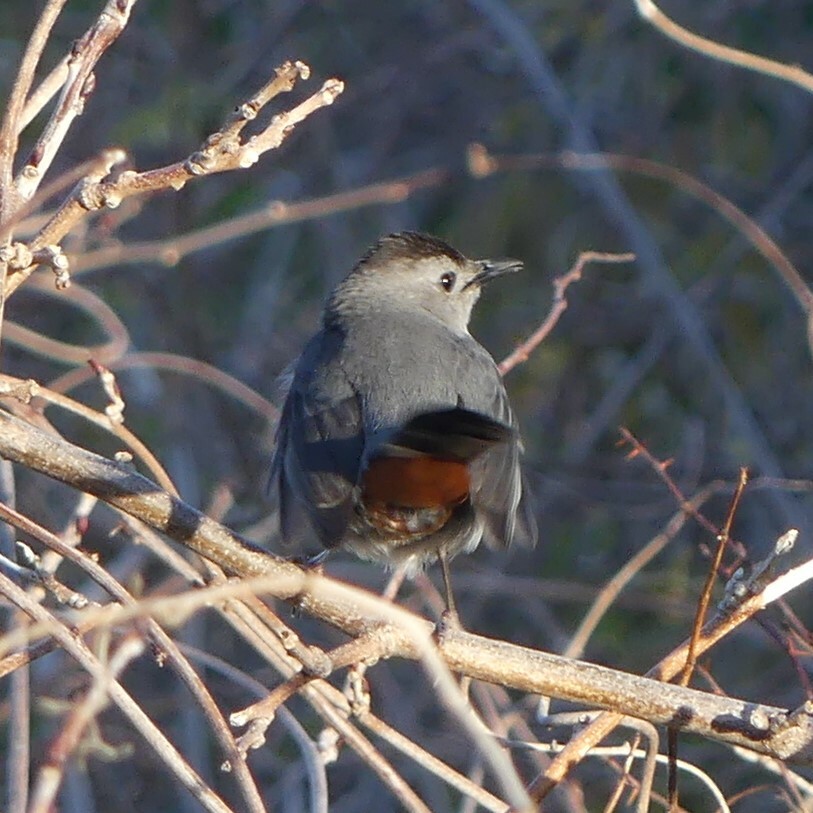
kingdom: Animalia
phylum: Chordata
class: Aves
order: Passeriformes
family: Mimidae
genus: Dumetella
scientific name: Dumetella carolinensis
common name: Gray catbird
